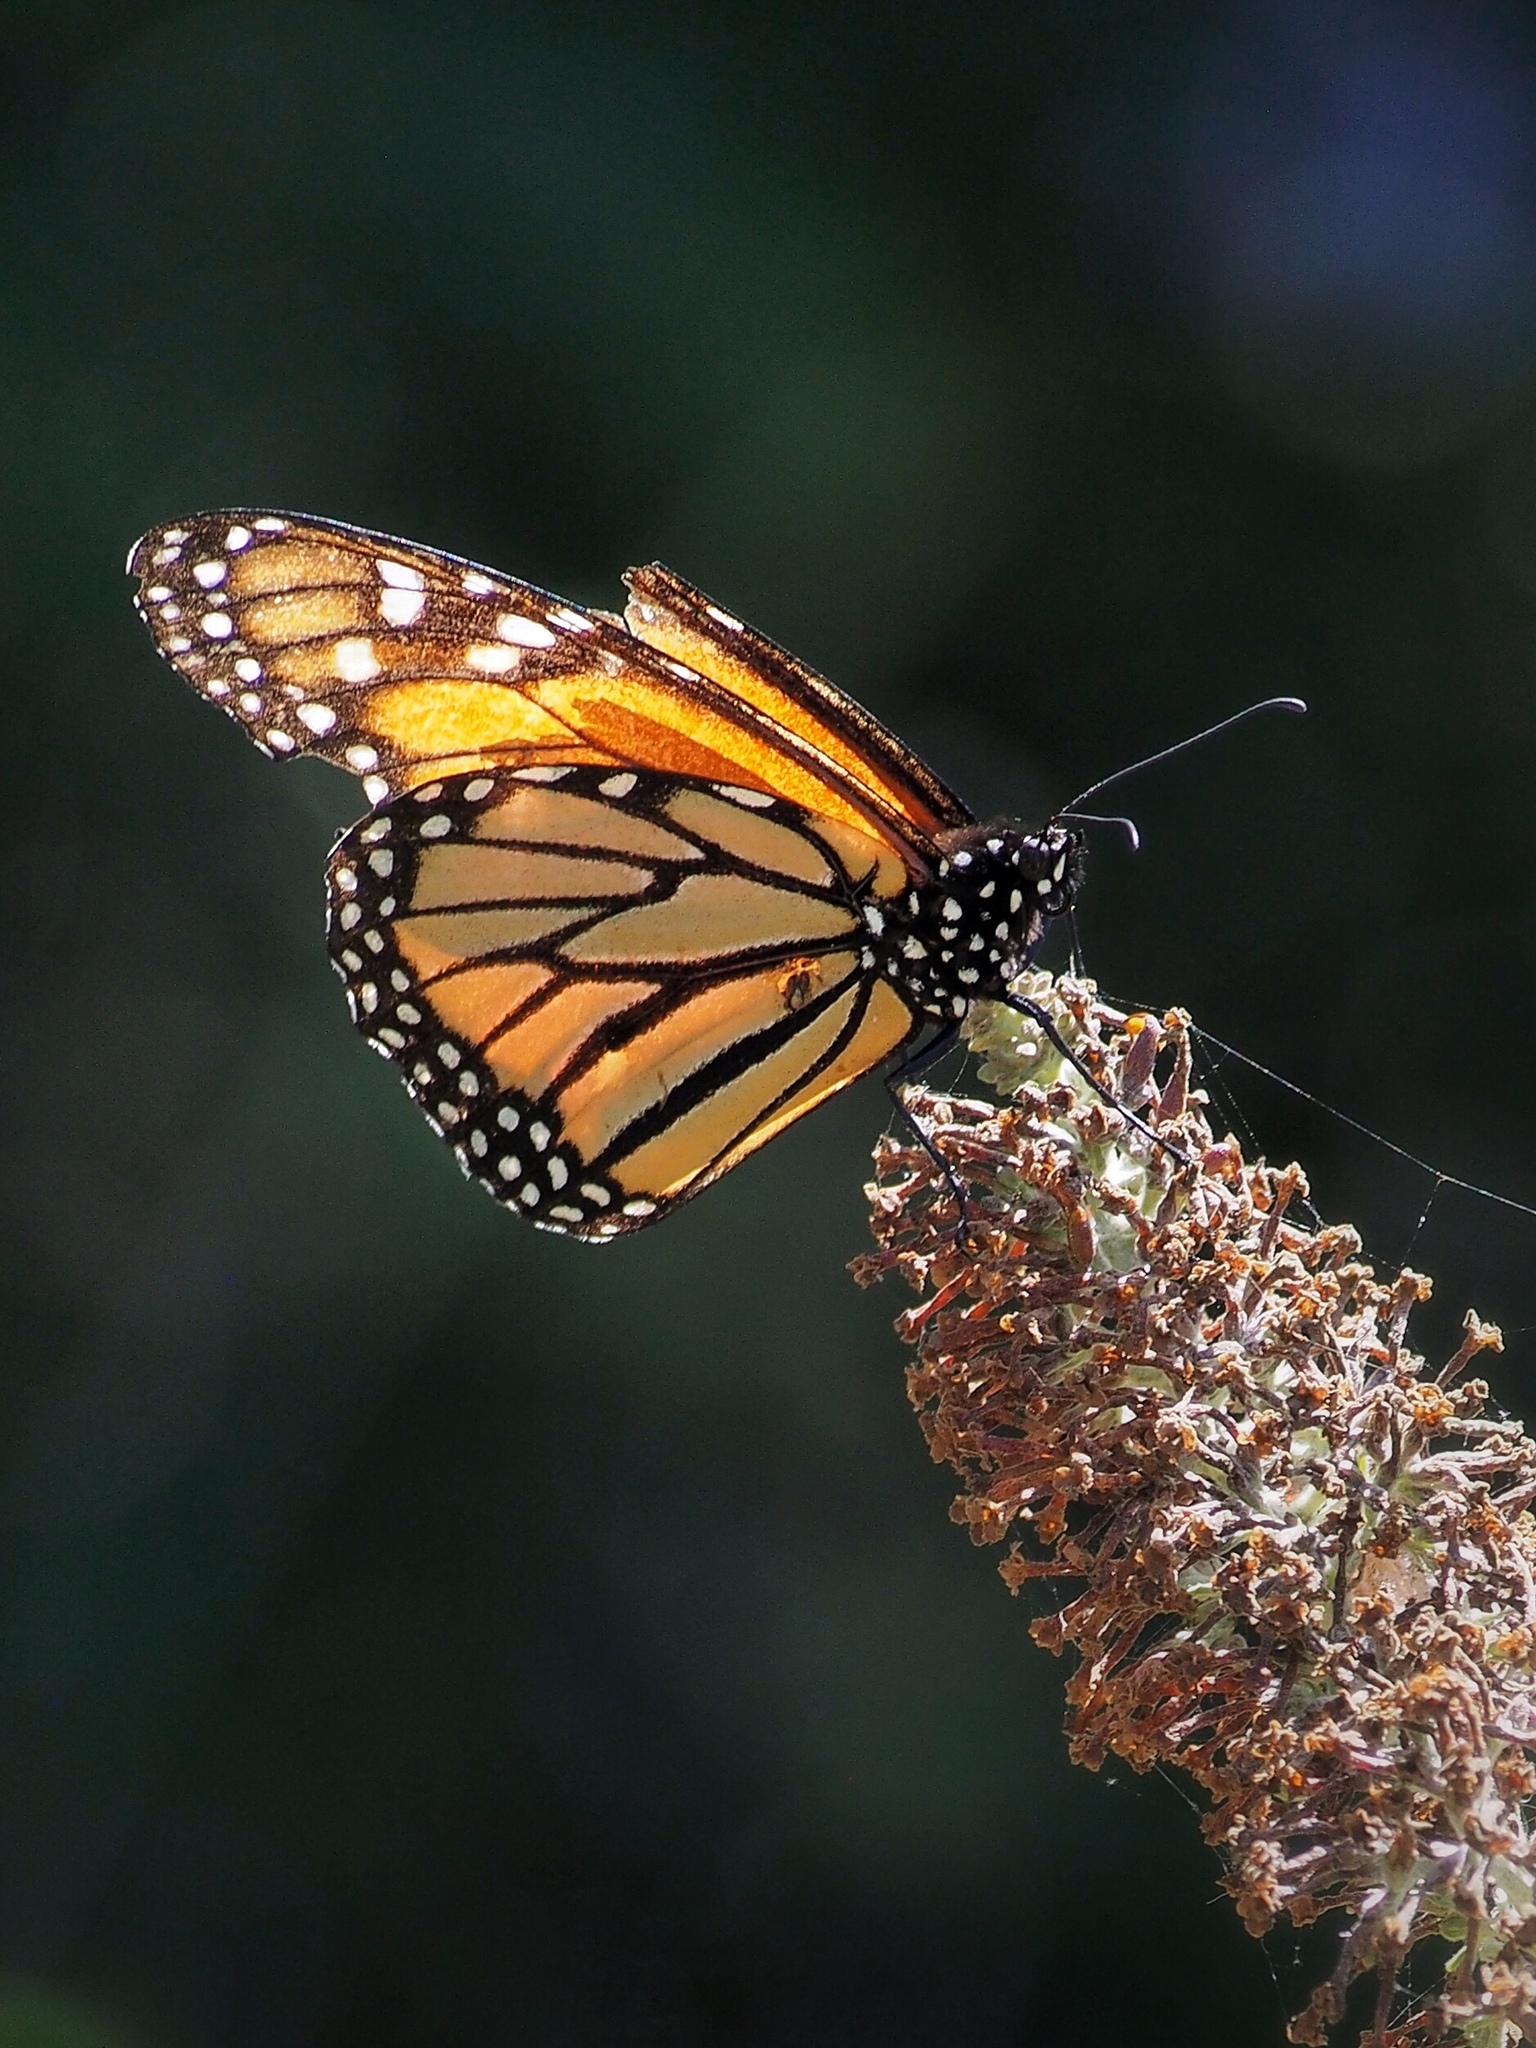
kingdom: Animalia
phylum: Arthropoda
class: Insecta
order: Lepidoptera
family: Nymphalidae
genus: Danaus
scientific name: Danaus plexippus
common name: Monarch
